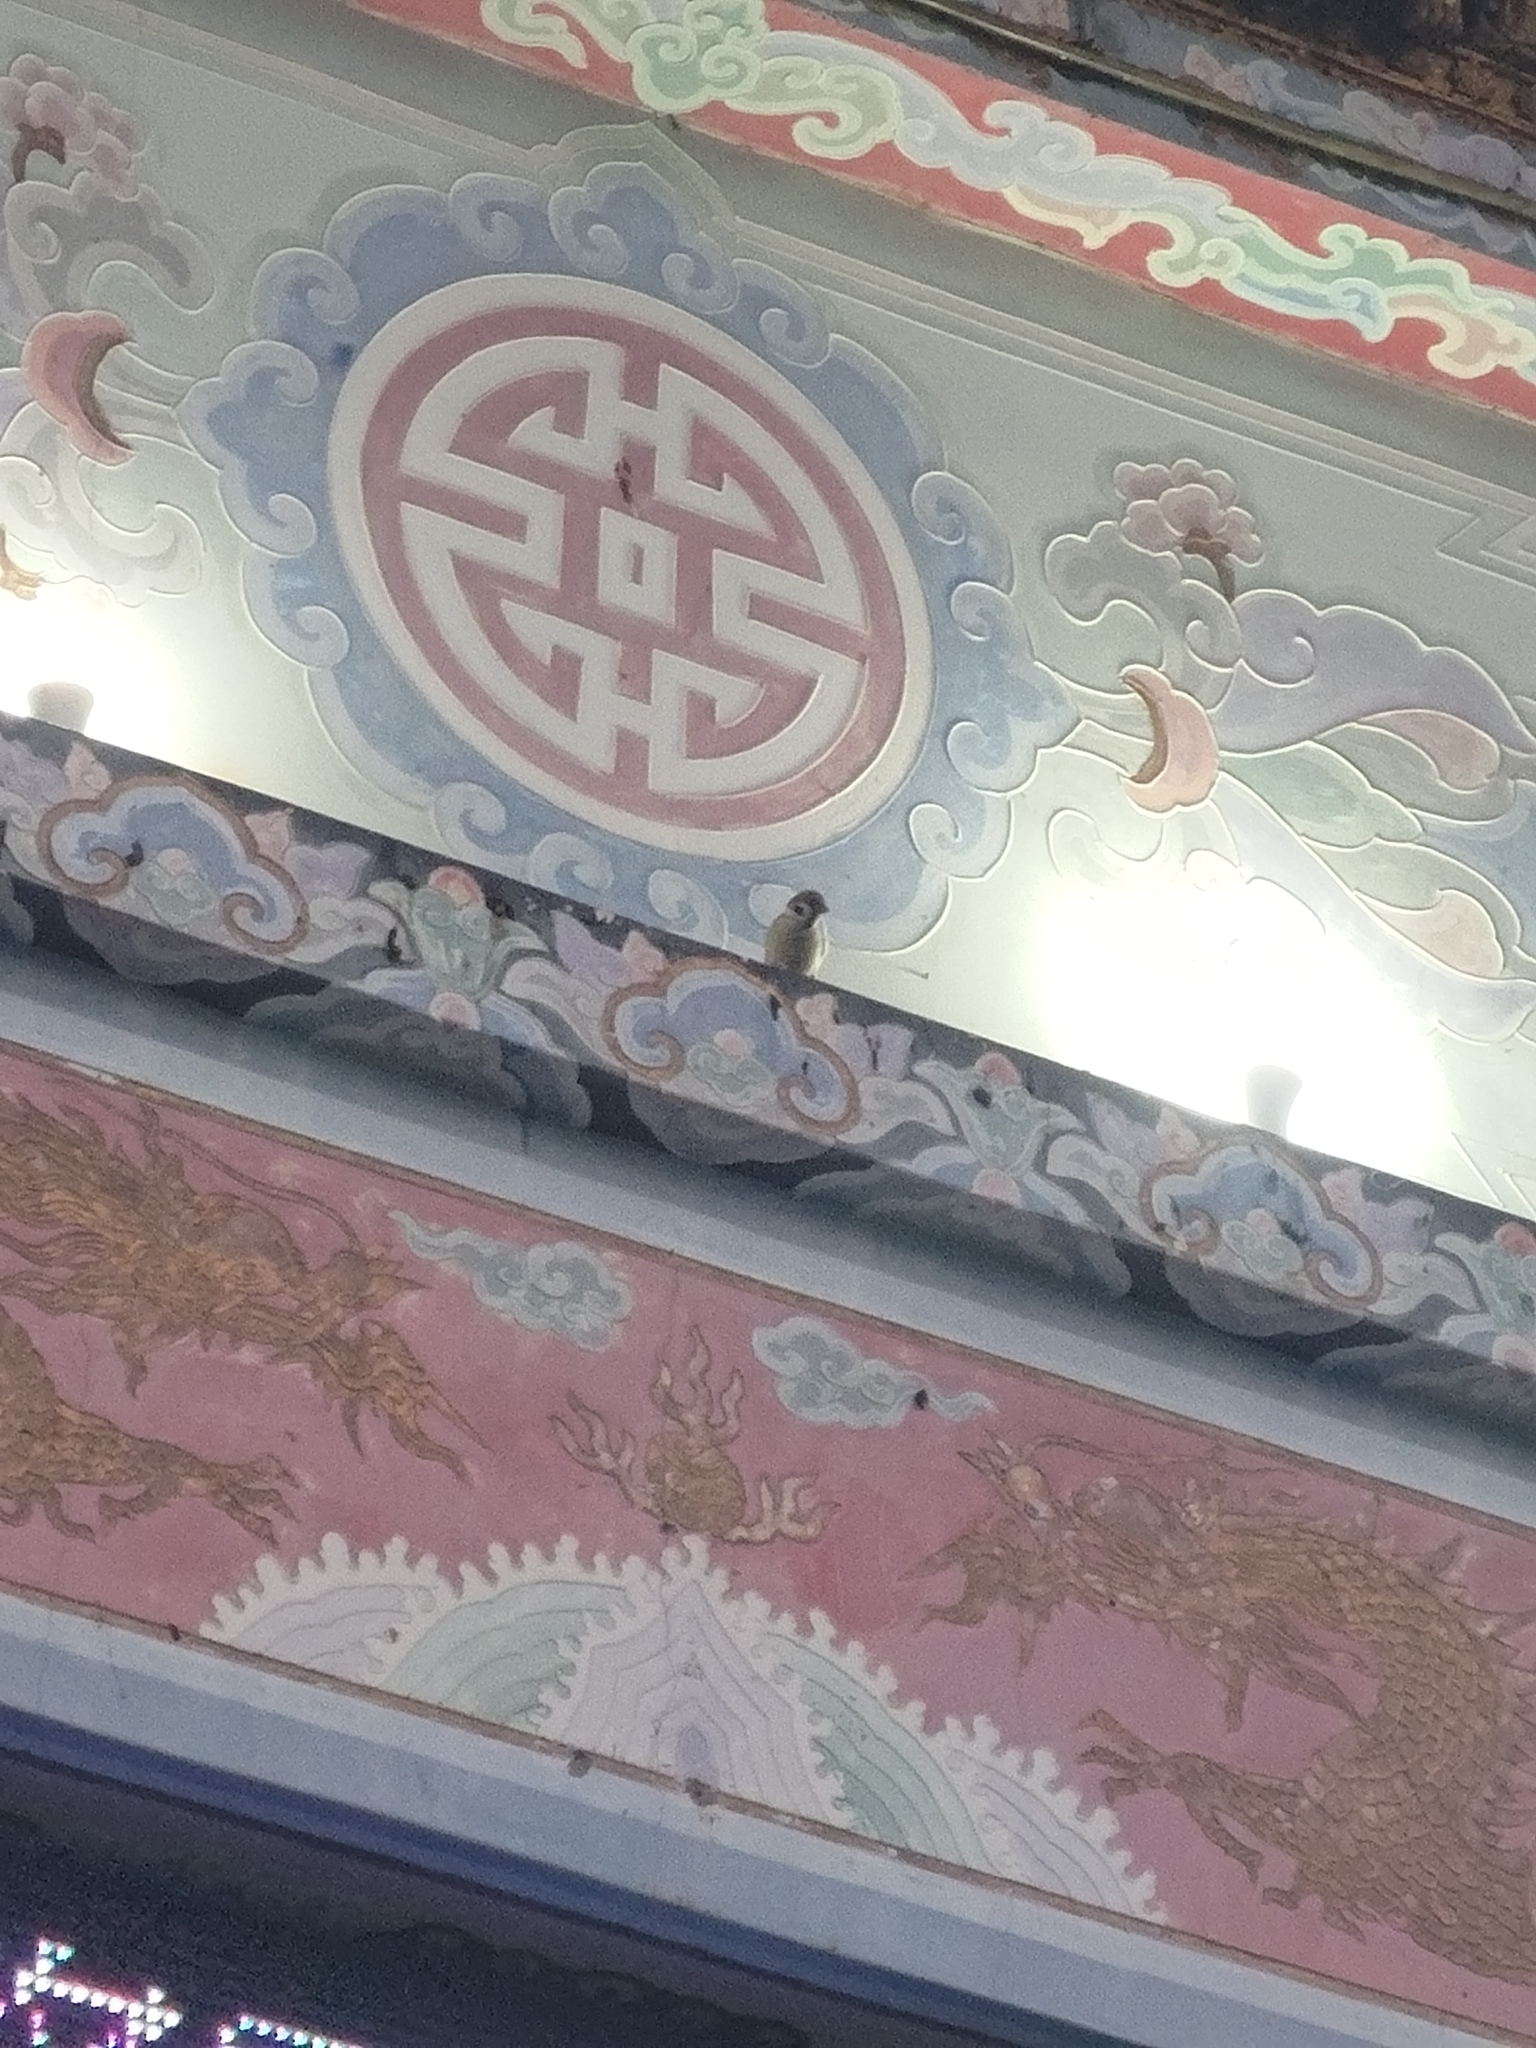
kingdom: Animalia
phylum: Chordata
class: Aves
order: Passeriformes
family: Passeridae
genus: Passer
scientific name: Passer montanus
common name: Eurasian tree sparrow
